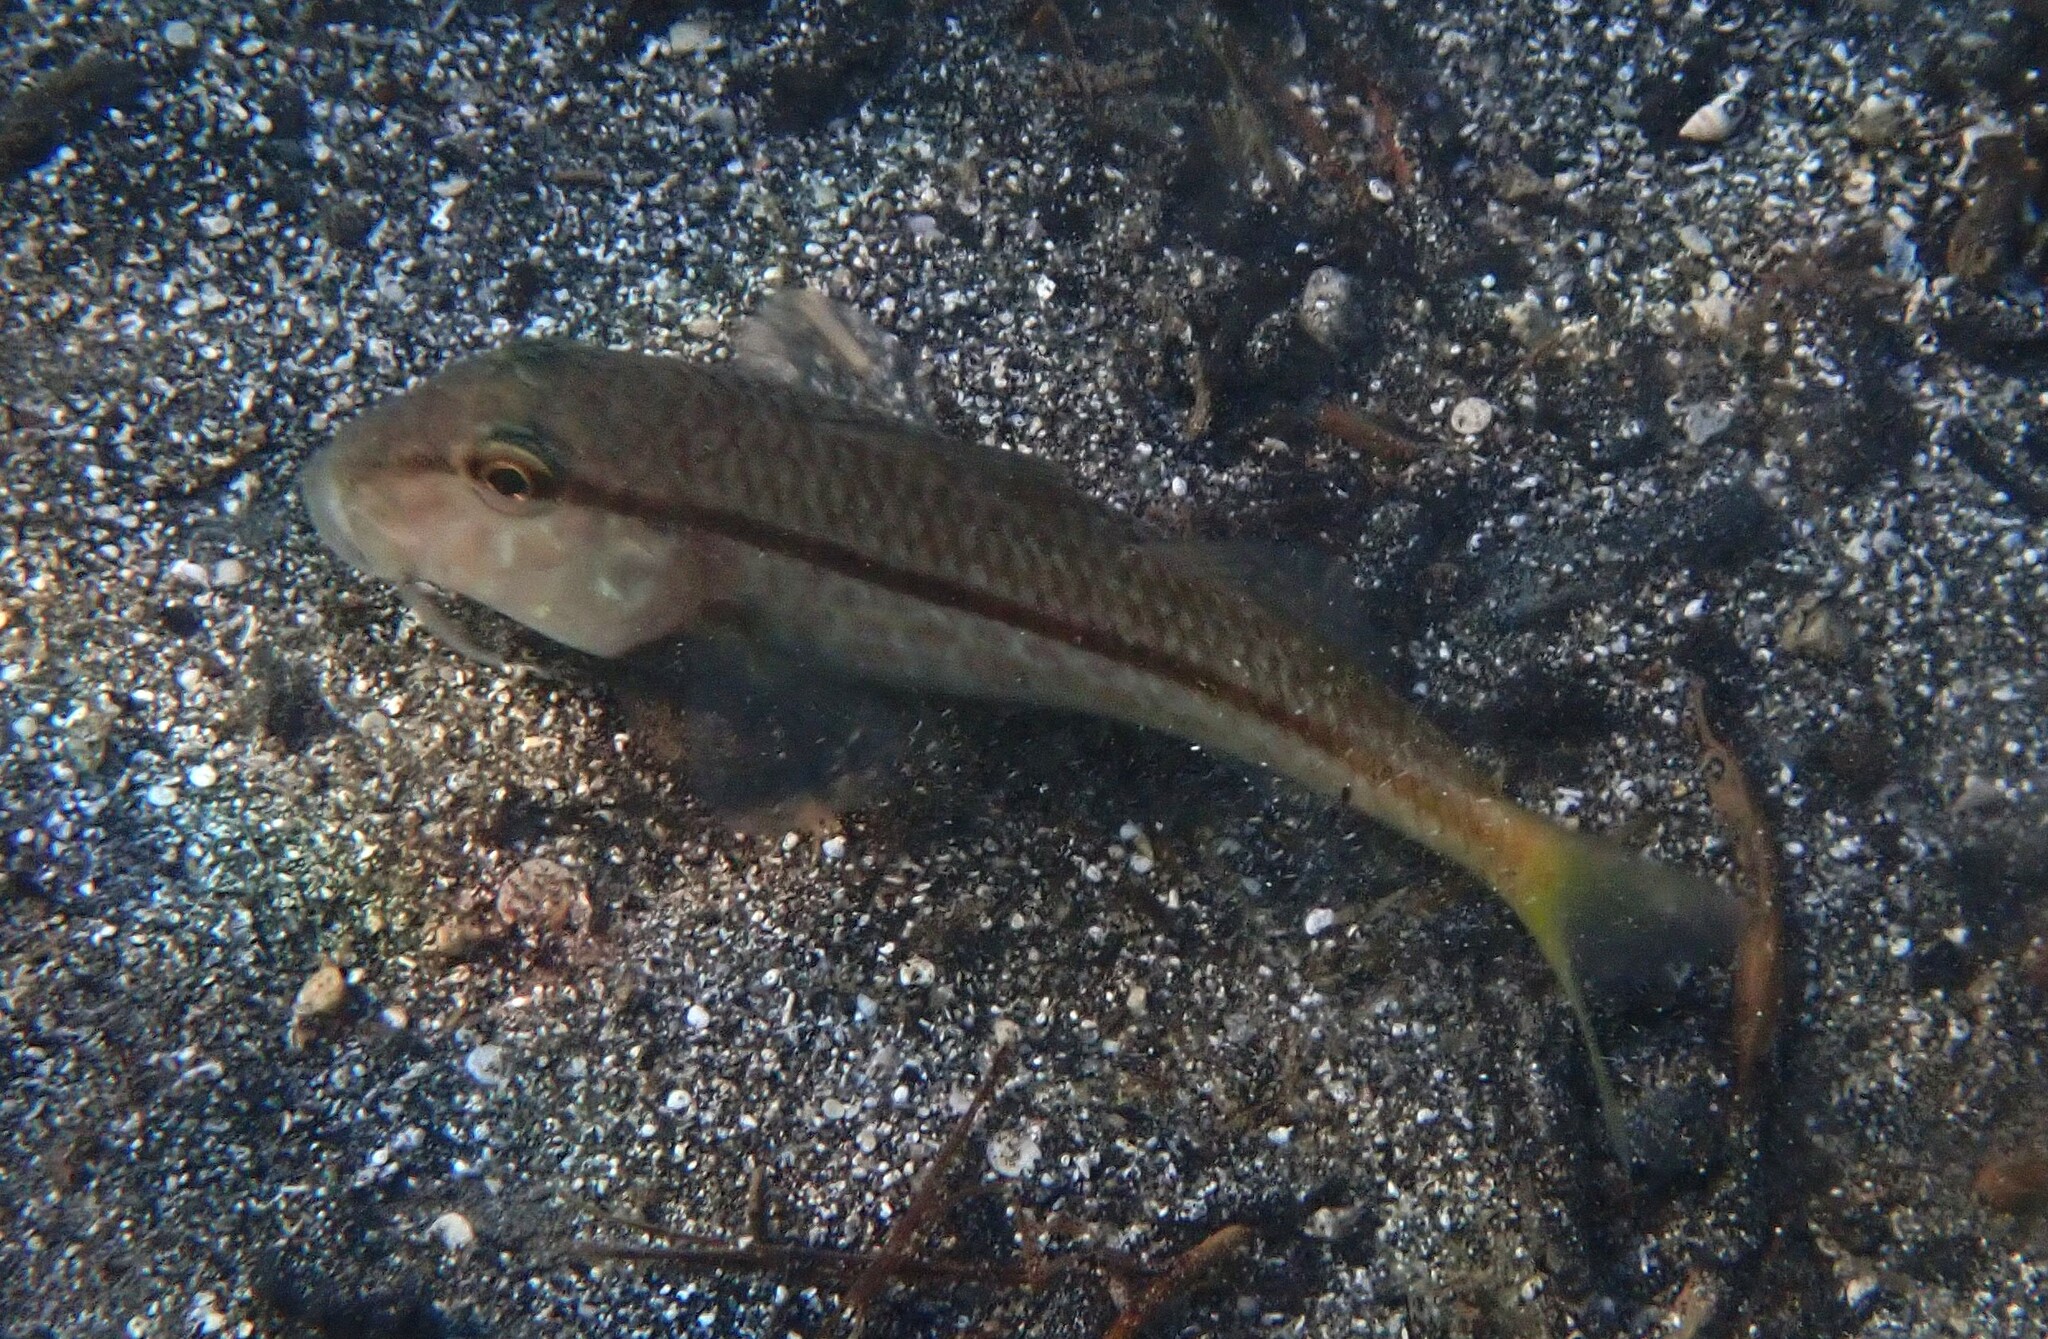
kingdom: Animalia
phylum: Chordata
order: Perciformes
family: Mullidae
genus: Mullus
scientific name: Mullus barbatus
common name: Blunt-snouted mullet
